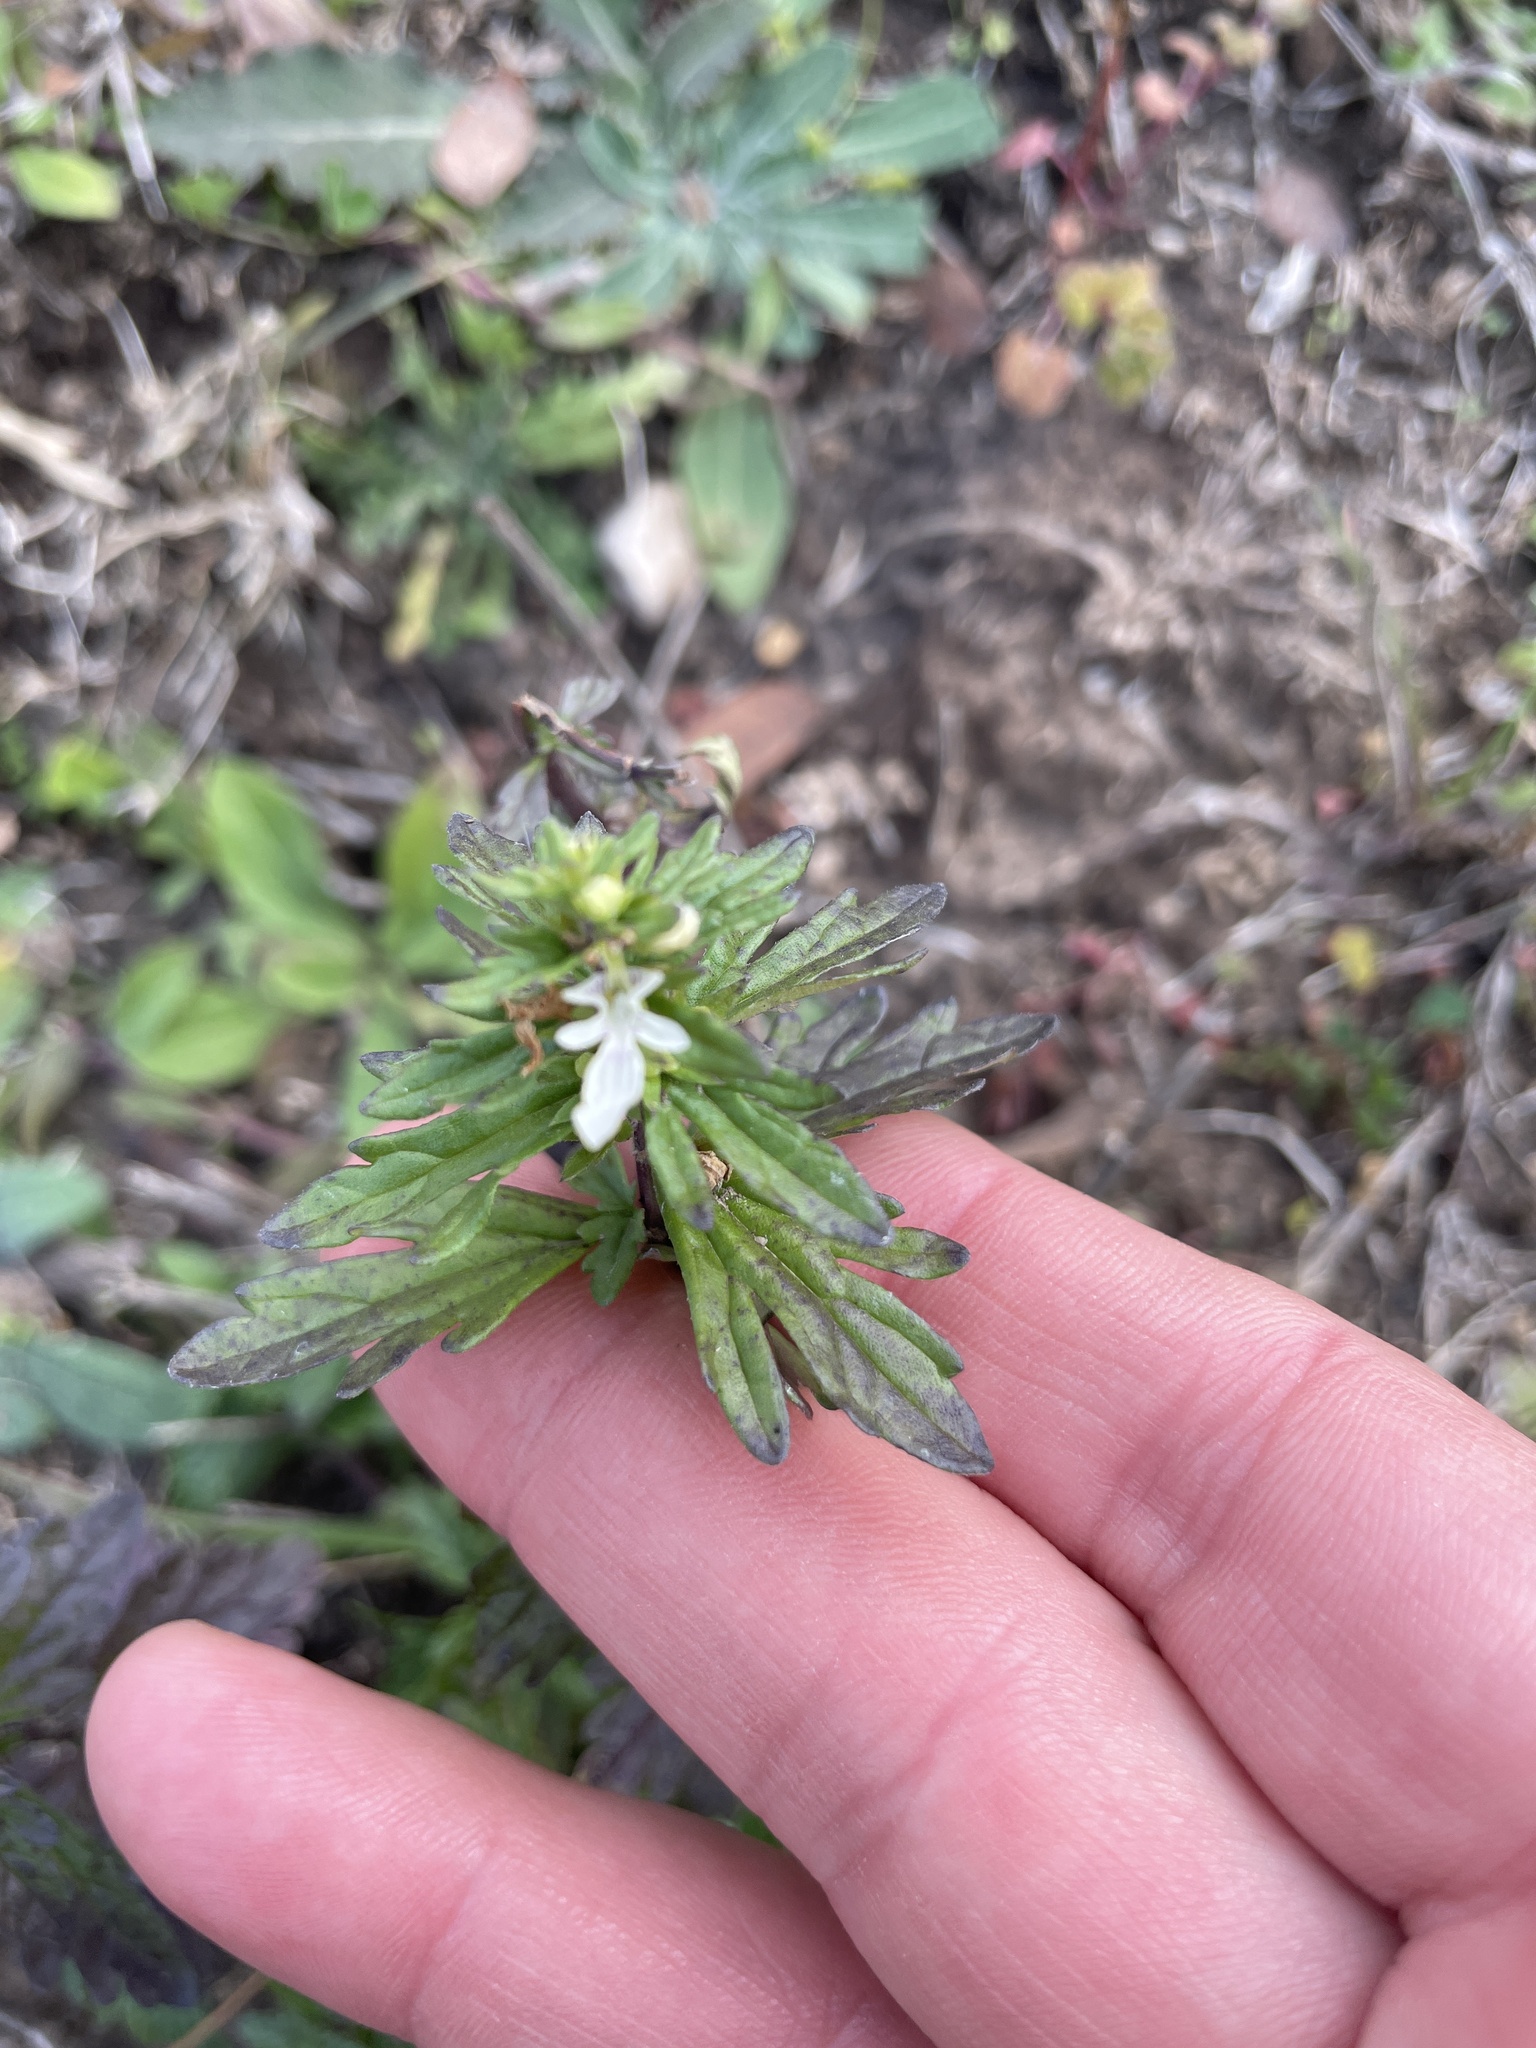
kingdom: Plantae
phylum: Tracheophyta
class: Magnoliopsida
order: Lamiales
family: Lamiaceae
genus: Teucrium
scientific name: Teucrium cubense
